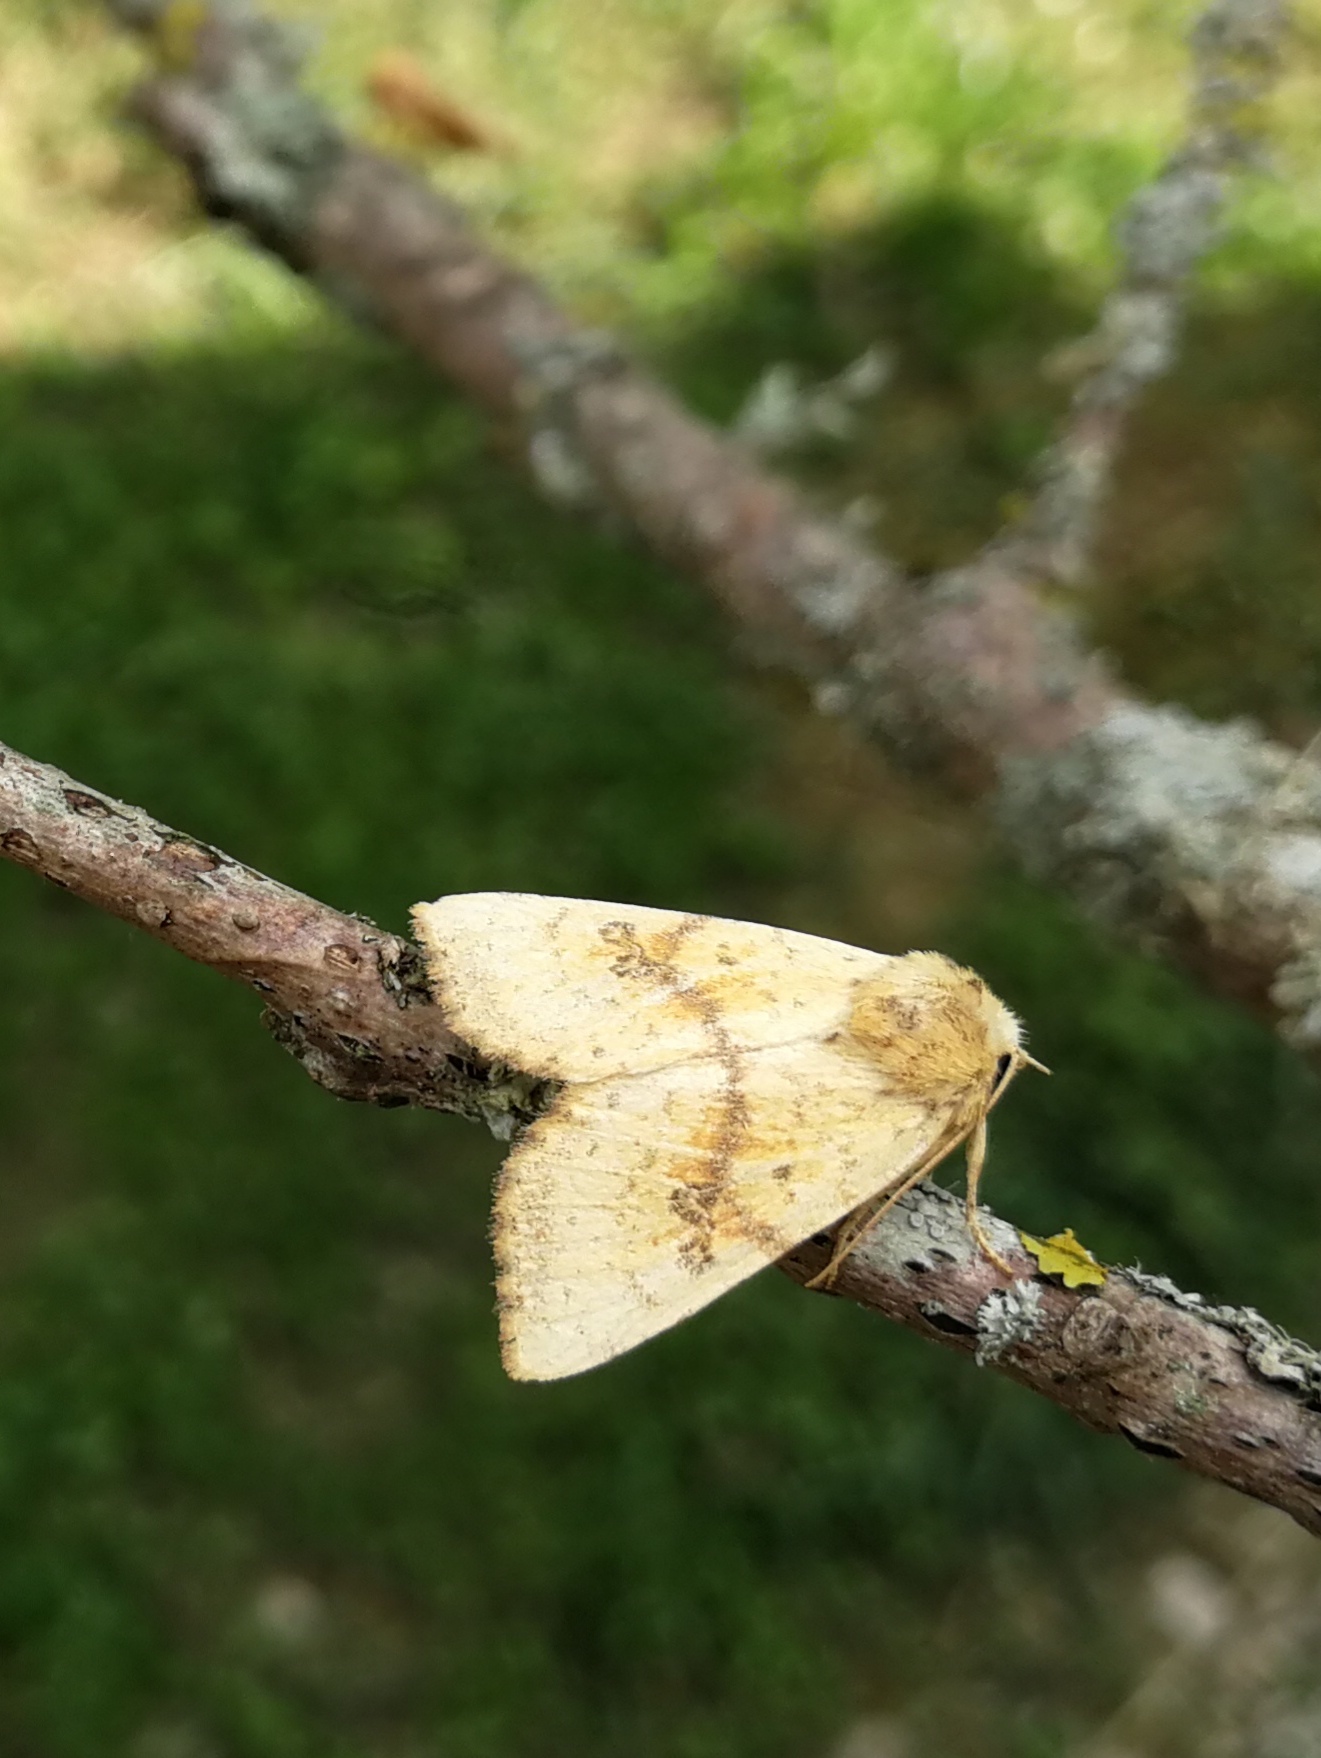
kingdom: Animalia
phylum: Arthropoda
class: Insecta
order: Lepidoptera
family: Noctuidae
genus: Tiliacea
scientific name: Tiliacea sulphurago
